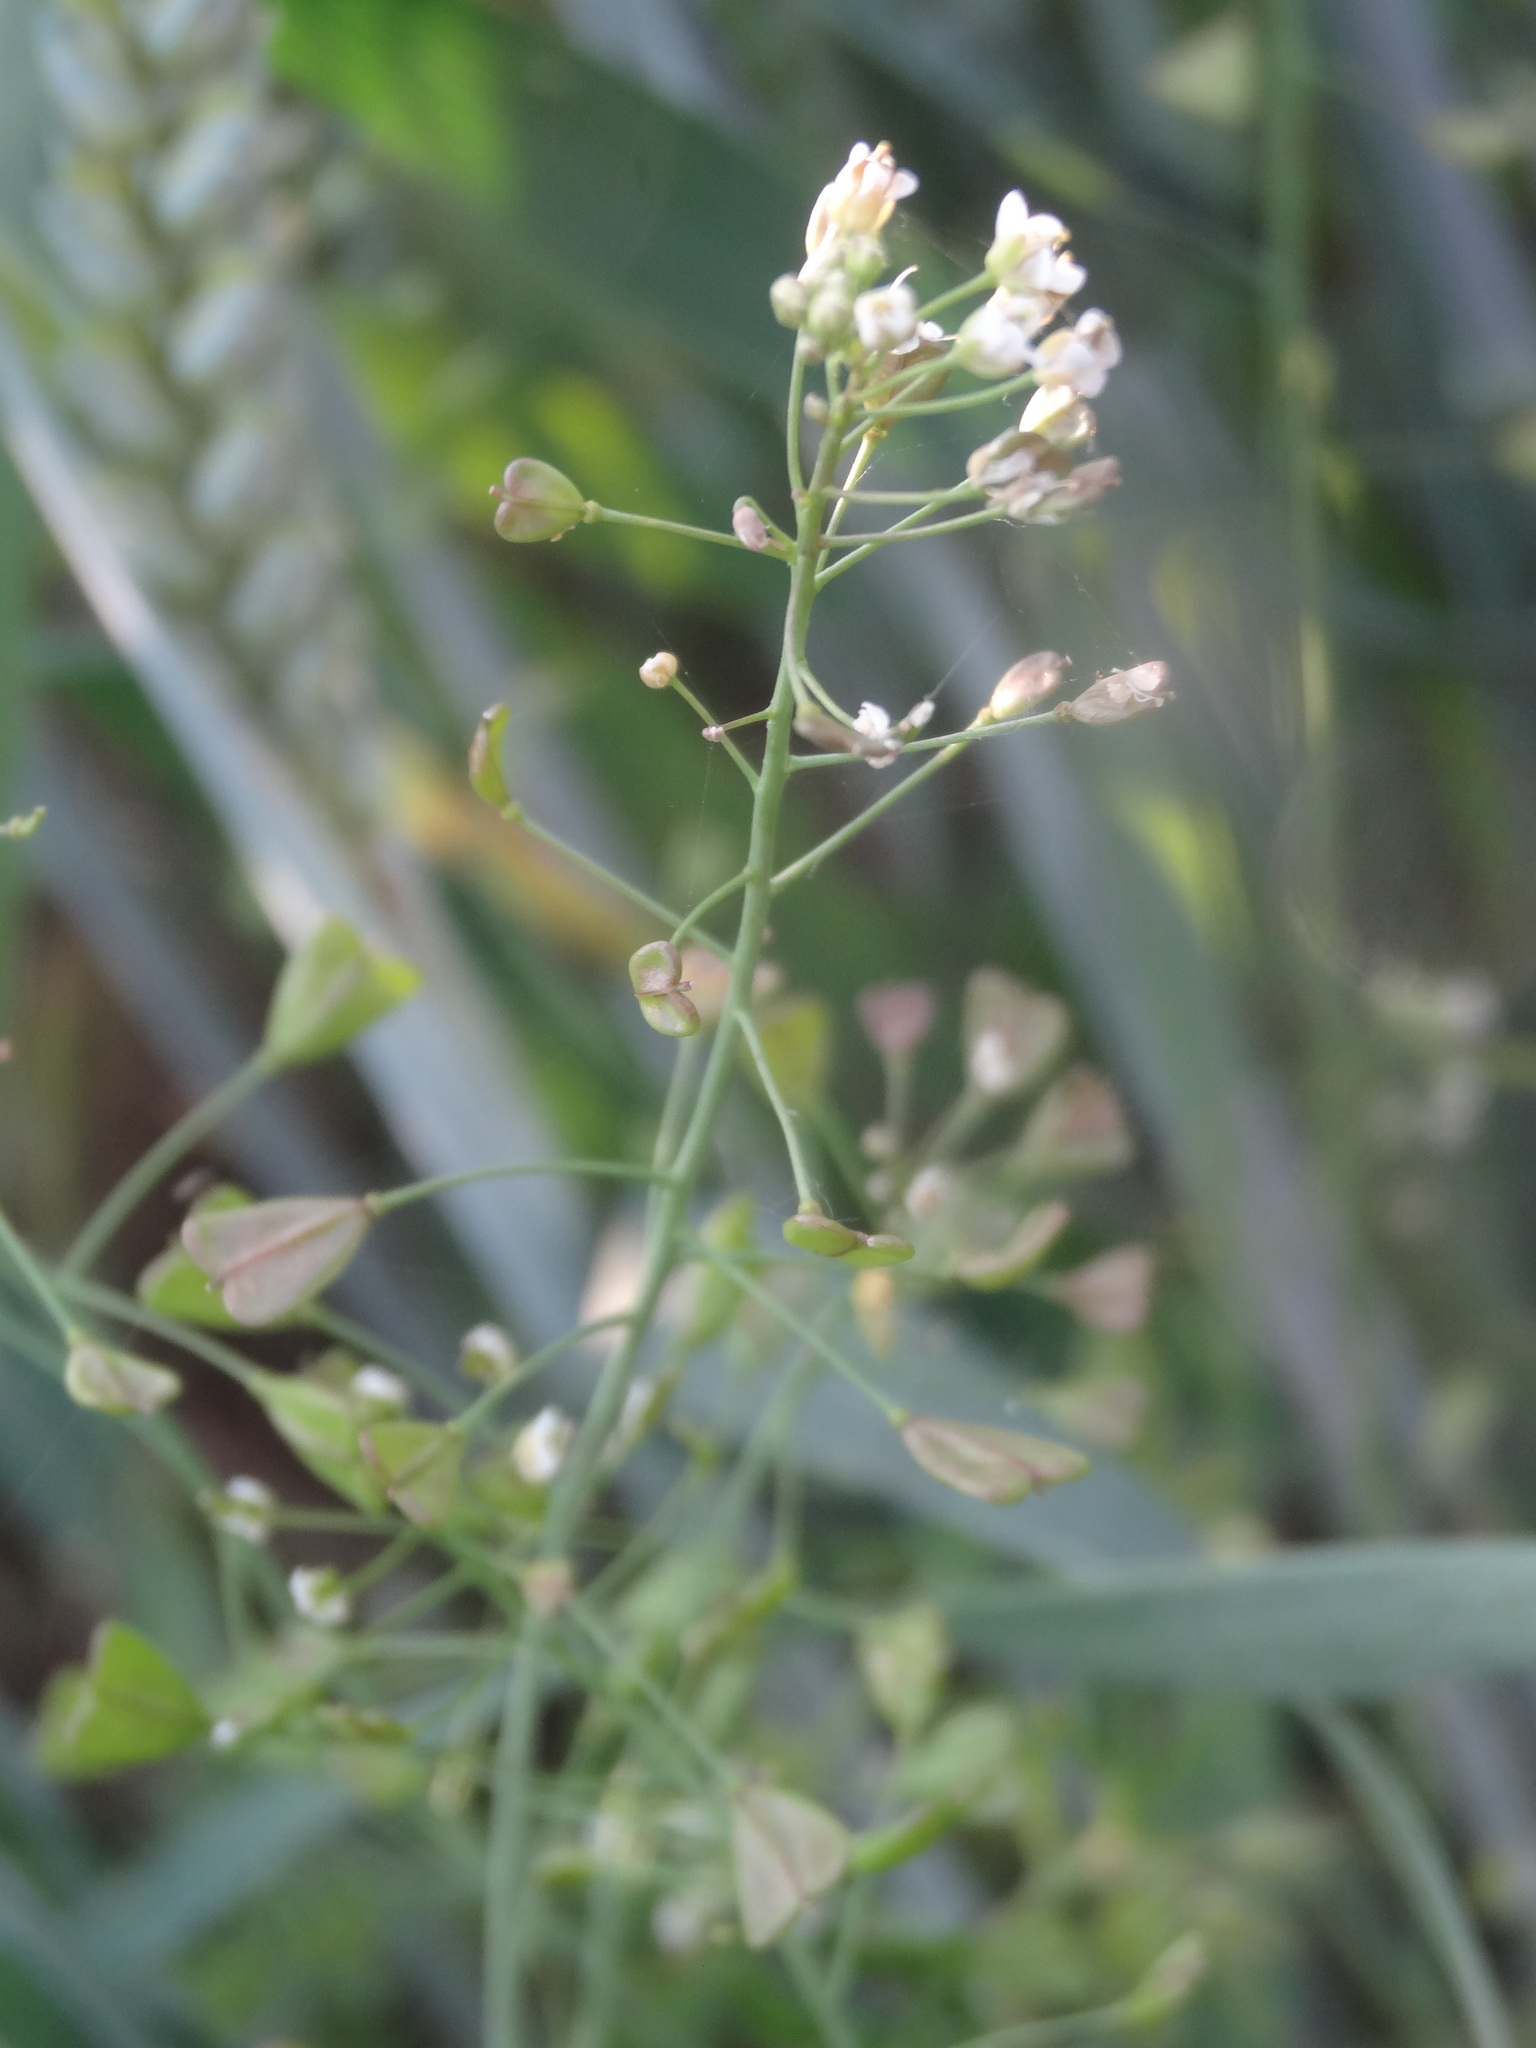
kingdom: Plantae
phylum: Tracheophyta
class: Magnoliopsida
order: Brassicales
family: Brassicaceae
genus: Capsella
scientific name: Capsella bursa-pastoris
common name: Shepherd's purse
